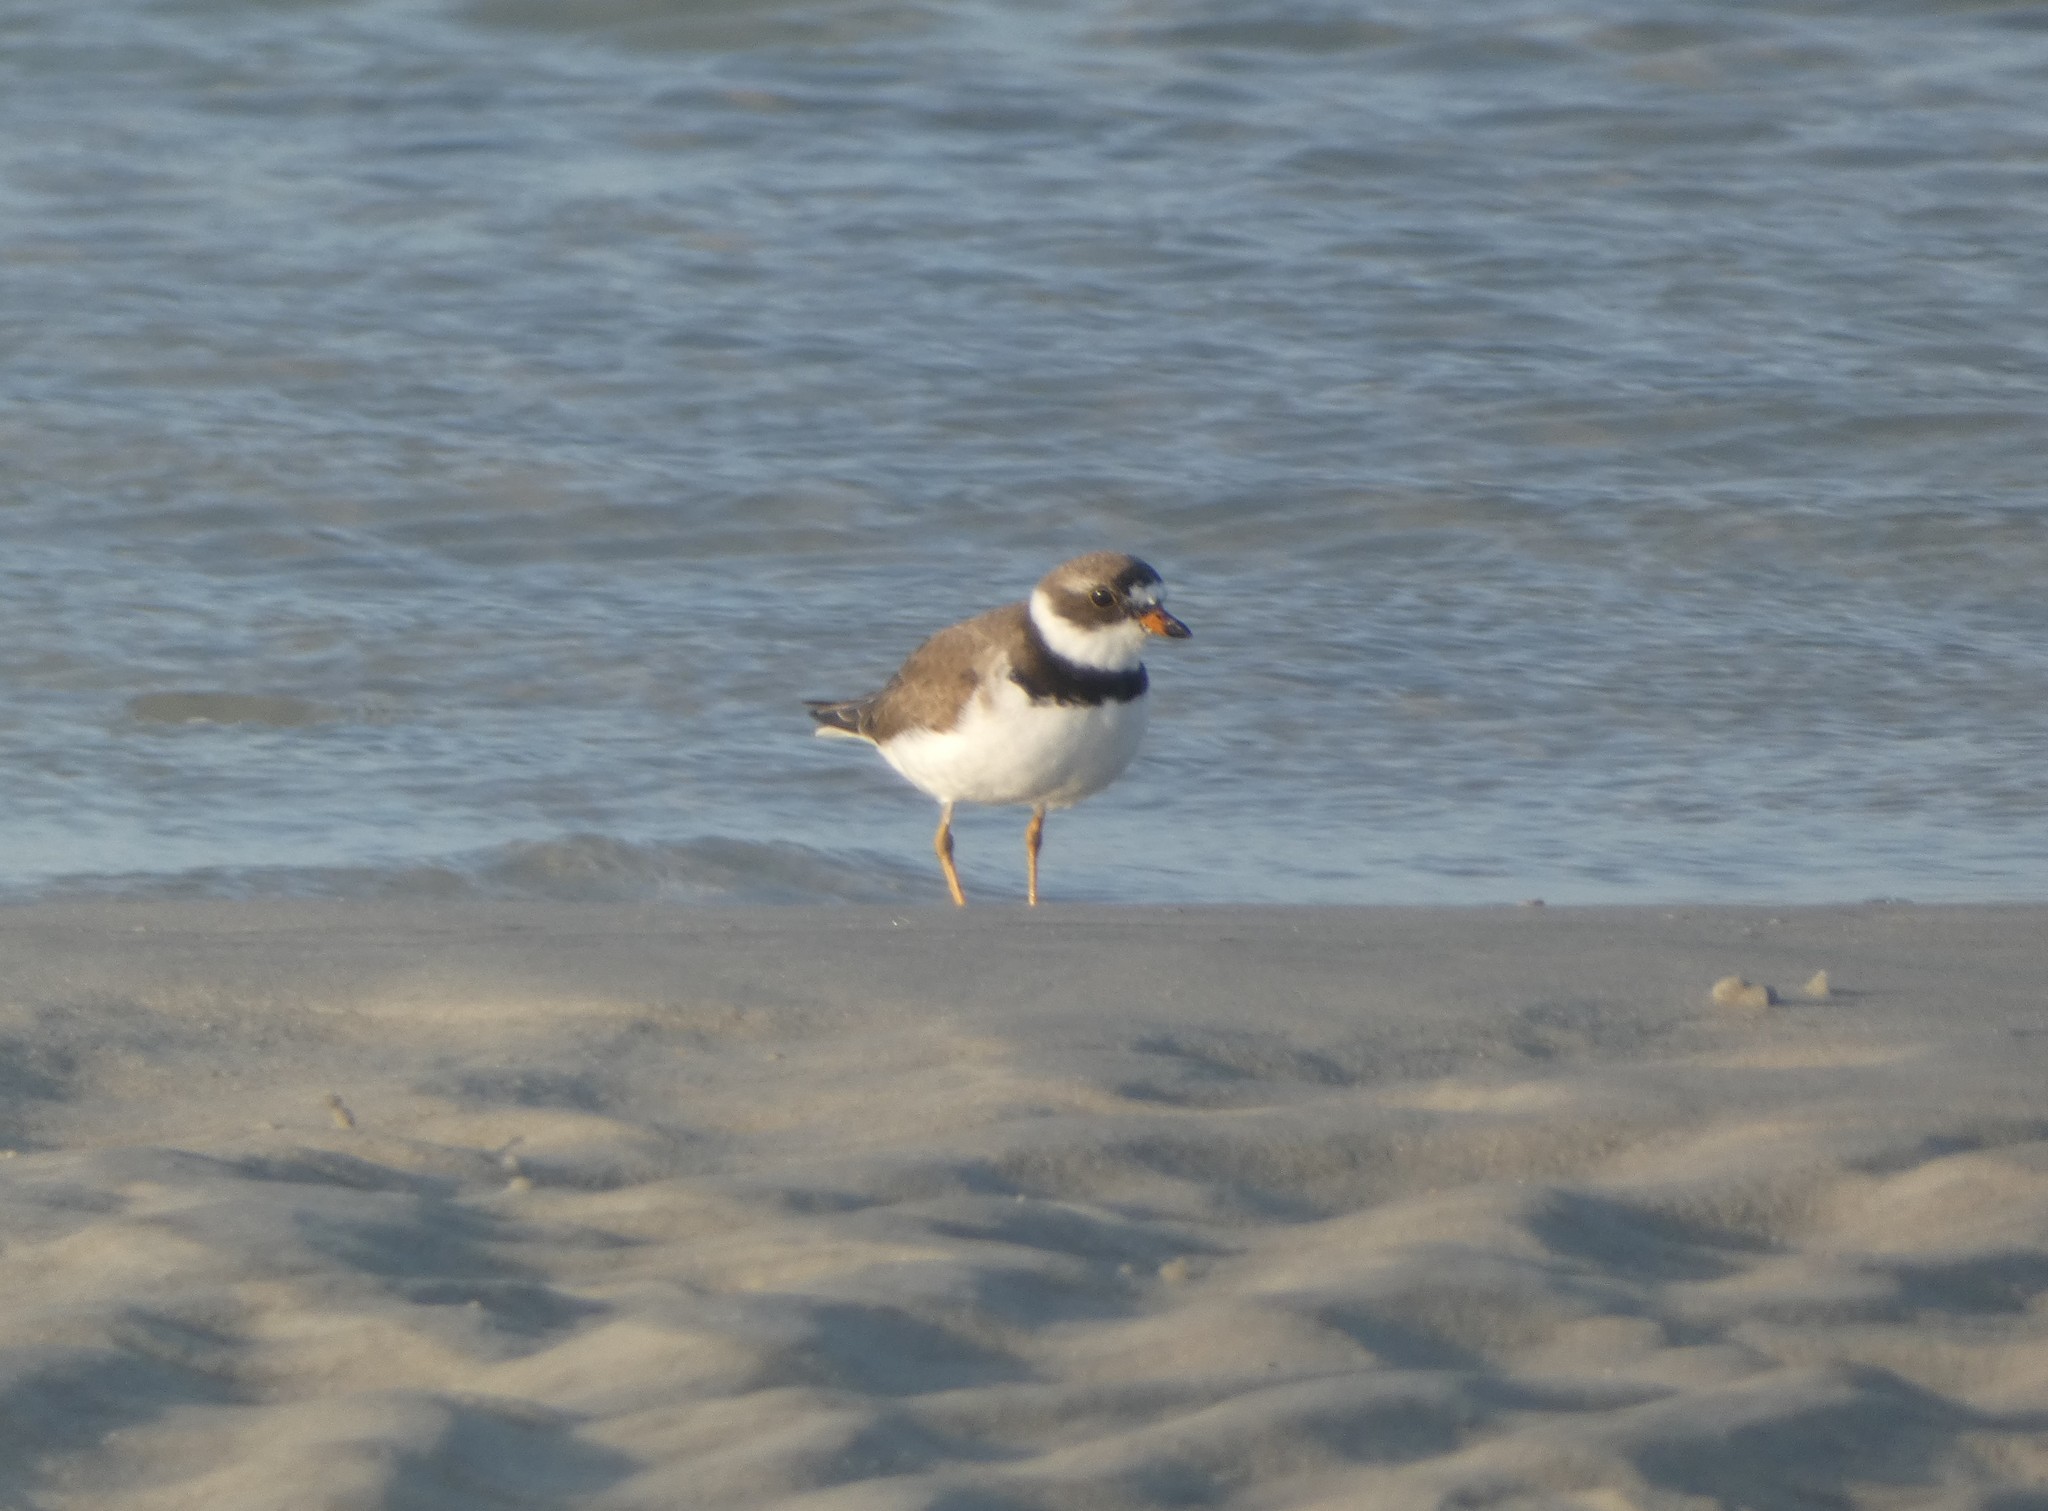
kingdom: Animalia
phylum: Chordata
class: Aves
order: Charadriiformes
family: Charadriidae
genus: Charadrius
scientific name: Charadrius semipalmatus
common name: Semipalmated plover
